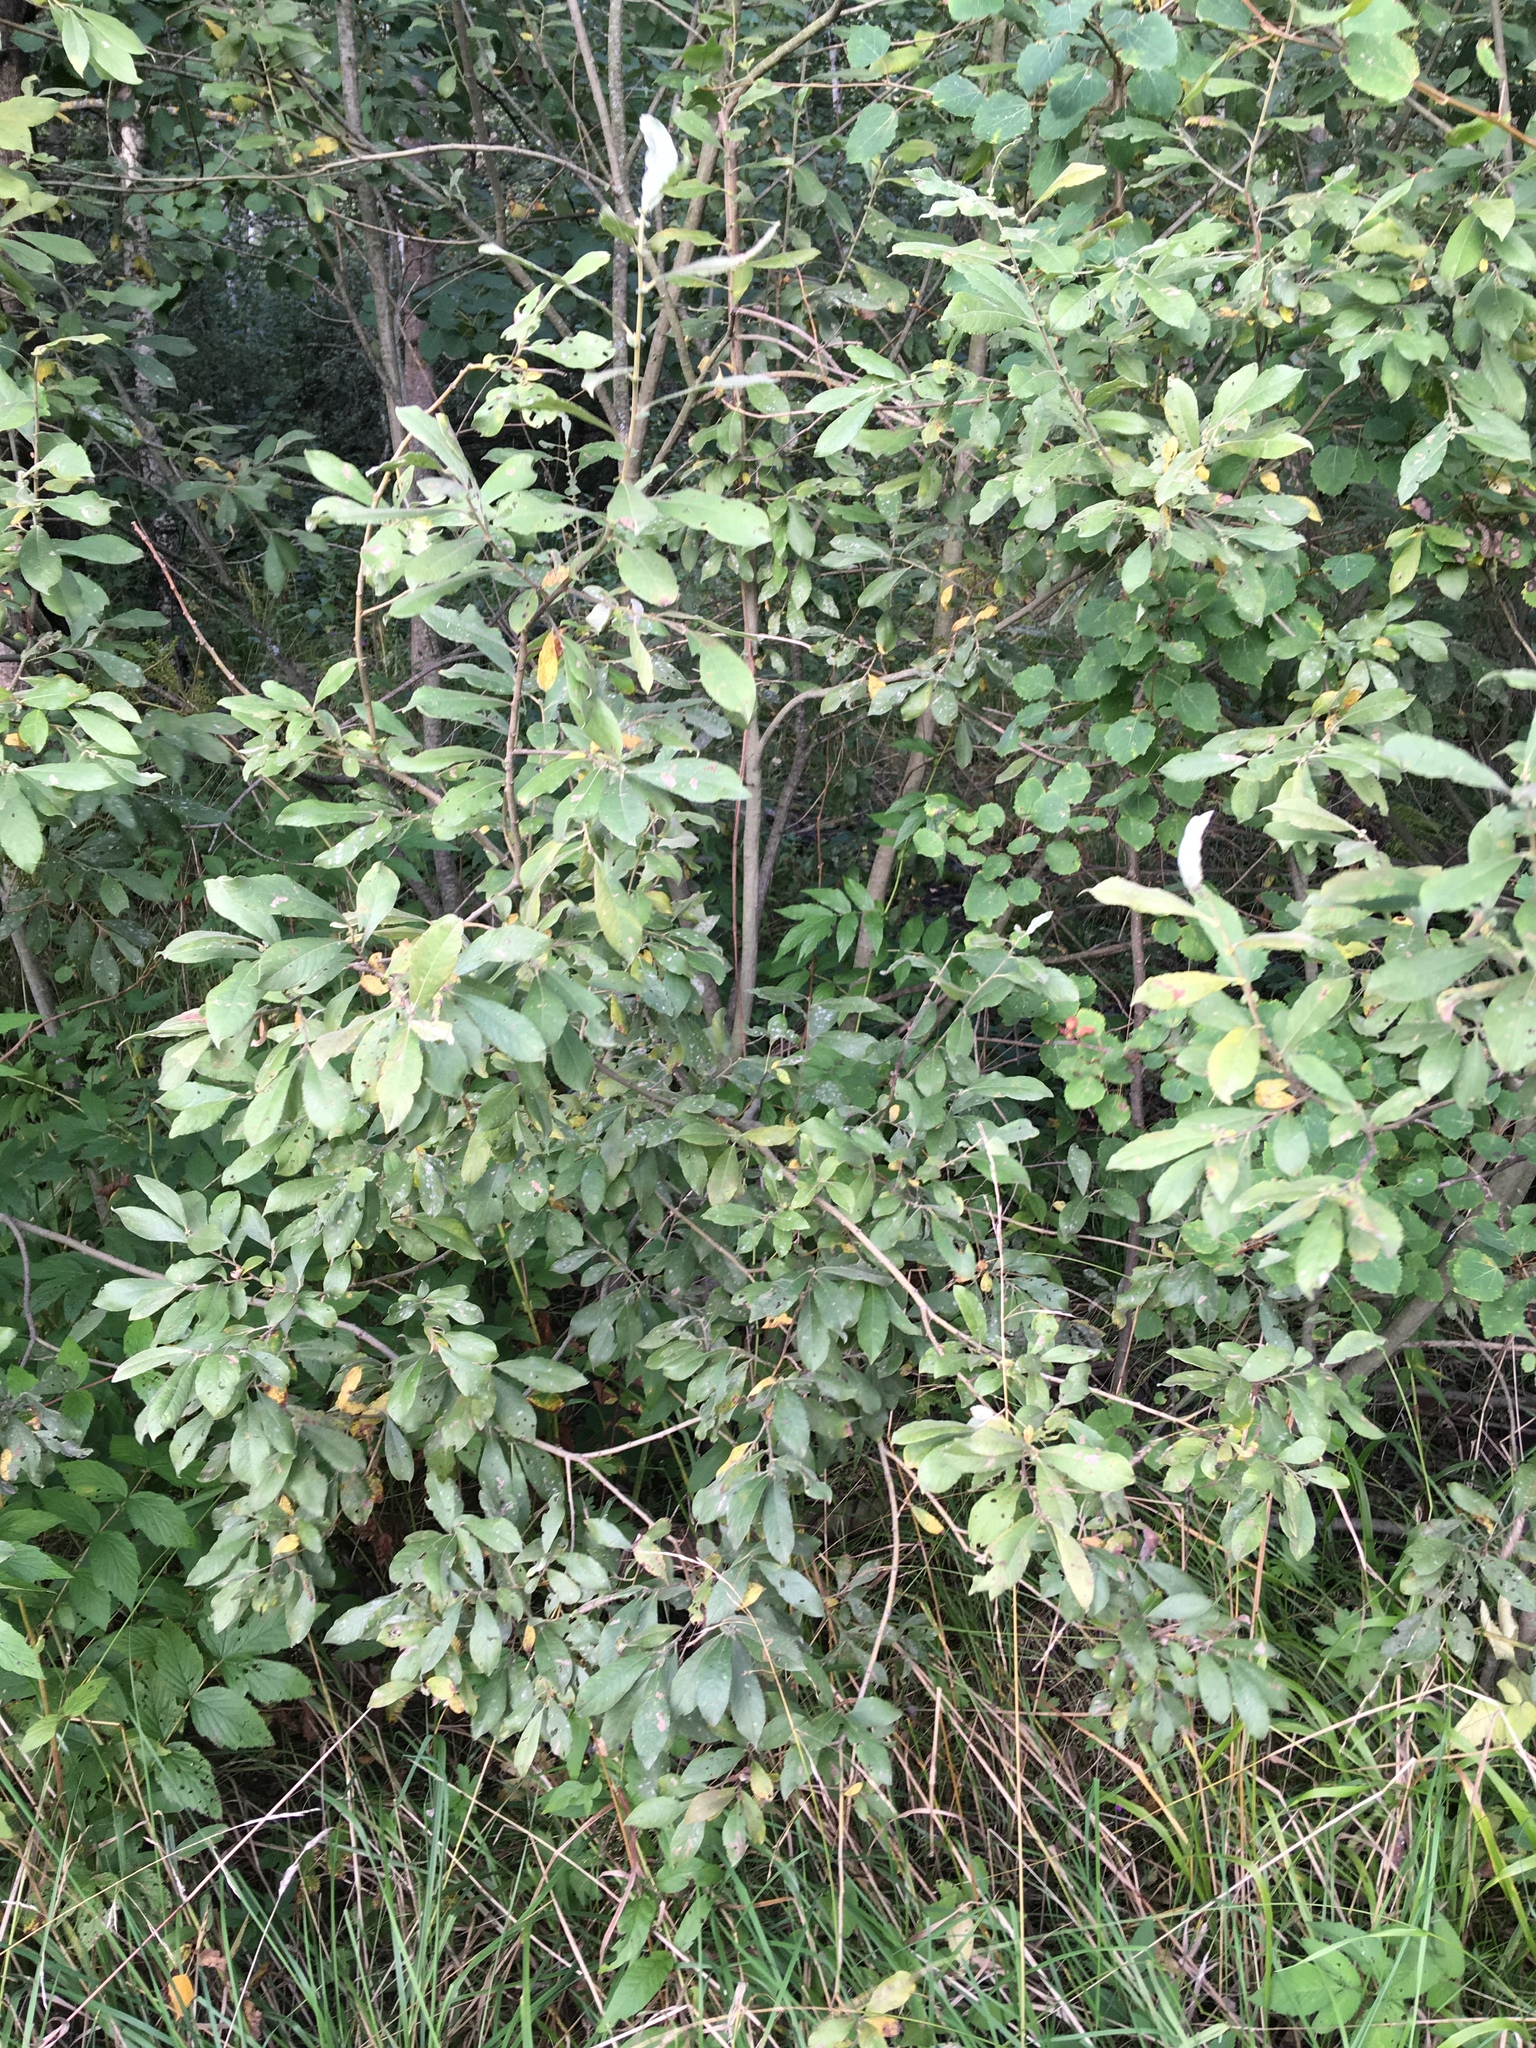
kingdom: Plantae
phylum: Tracheophyta
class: Magnoliopsida
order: Malpighiales
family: Salicaceae
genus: Salix
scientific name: Salix cinerea
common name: Common sallow
